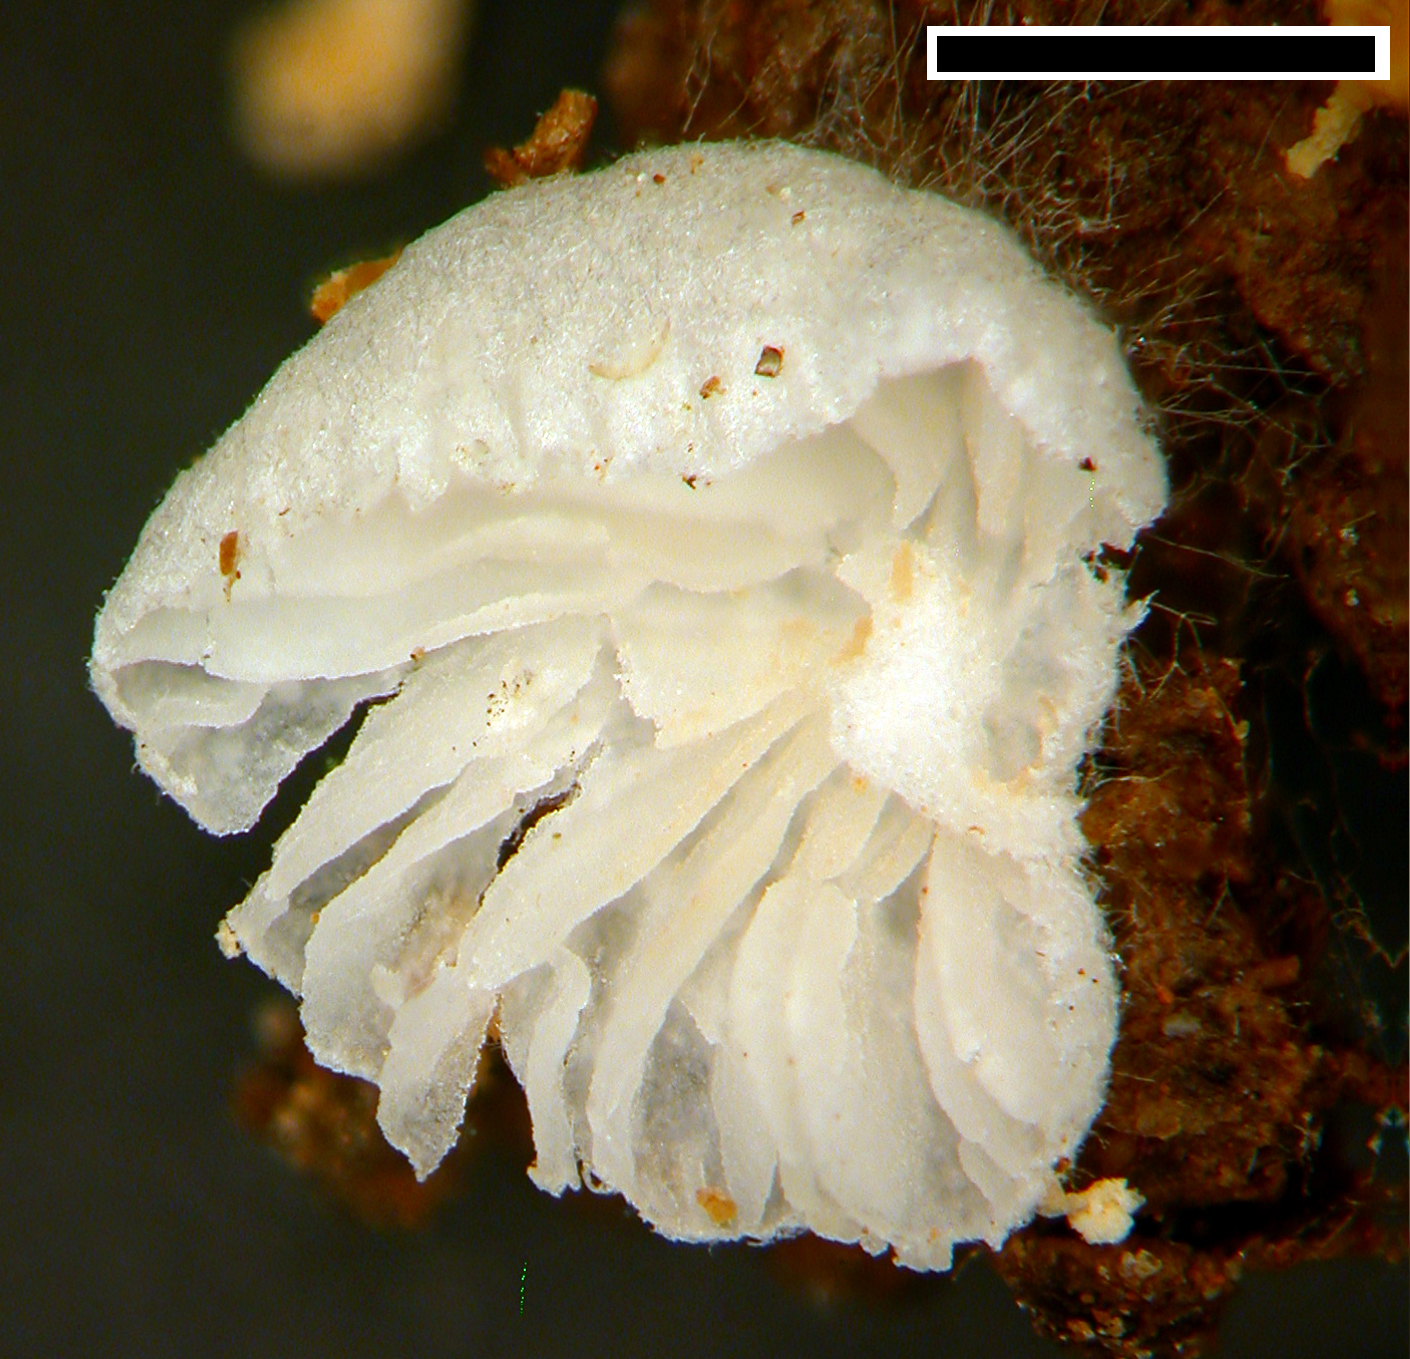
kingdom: Fungi
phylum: Basidiomycota
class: Agaricomycetes
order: Agaricales
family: Entolomataceae
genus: Clitopilus
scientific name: Clitopilus kamaka
